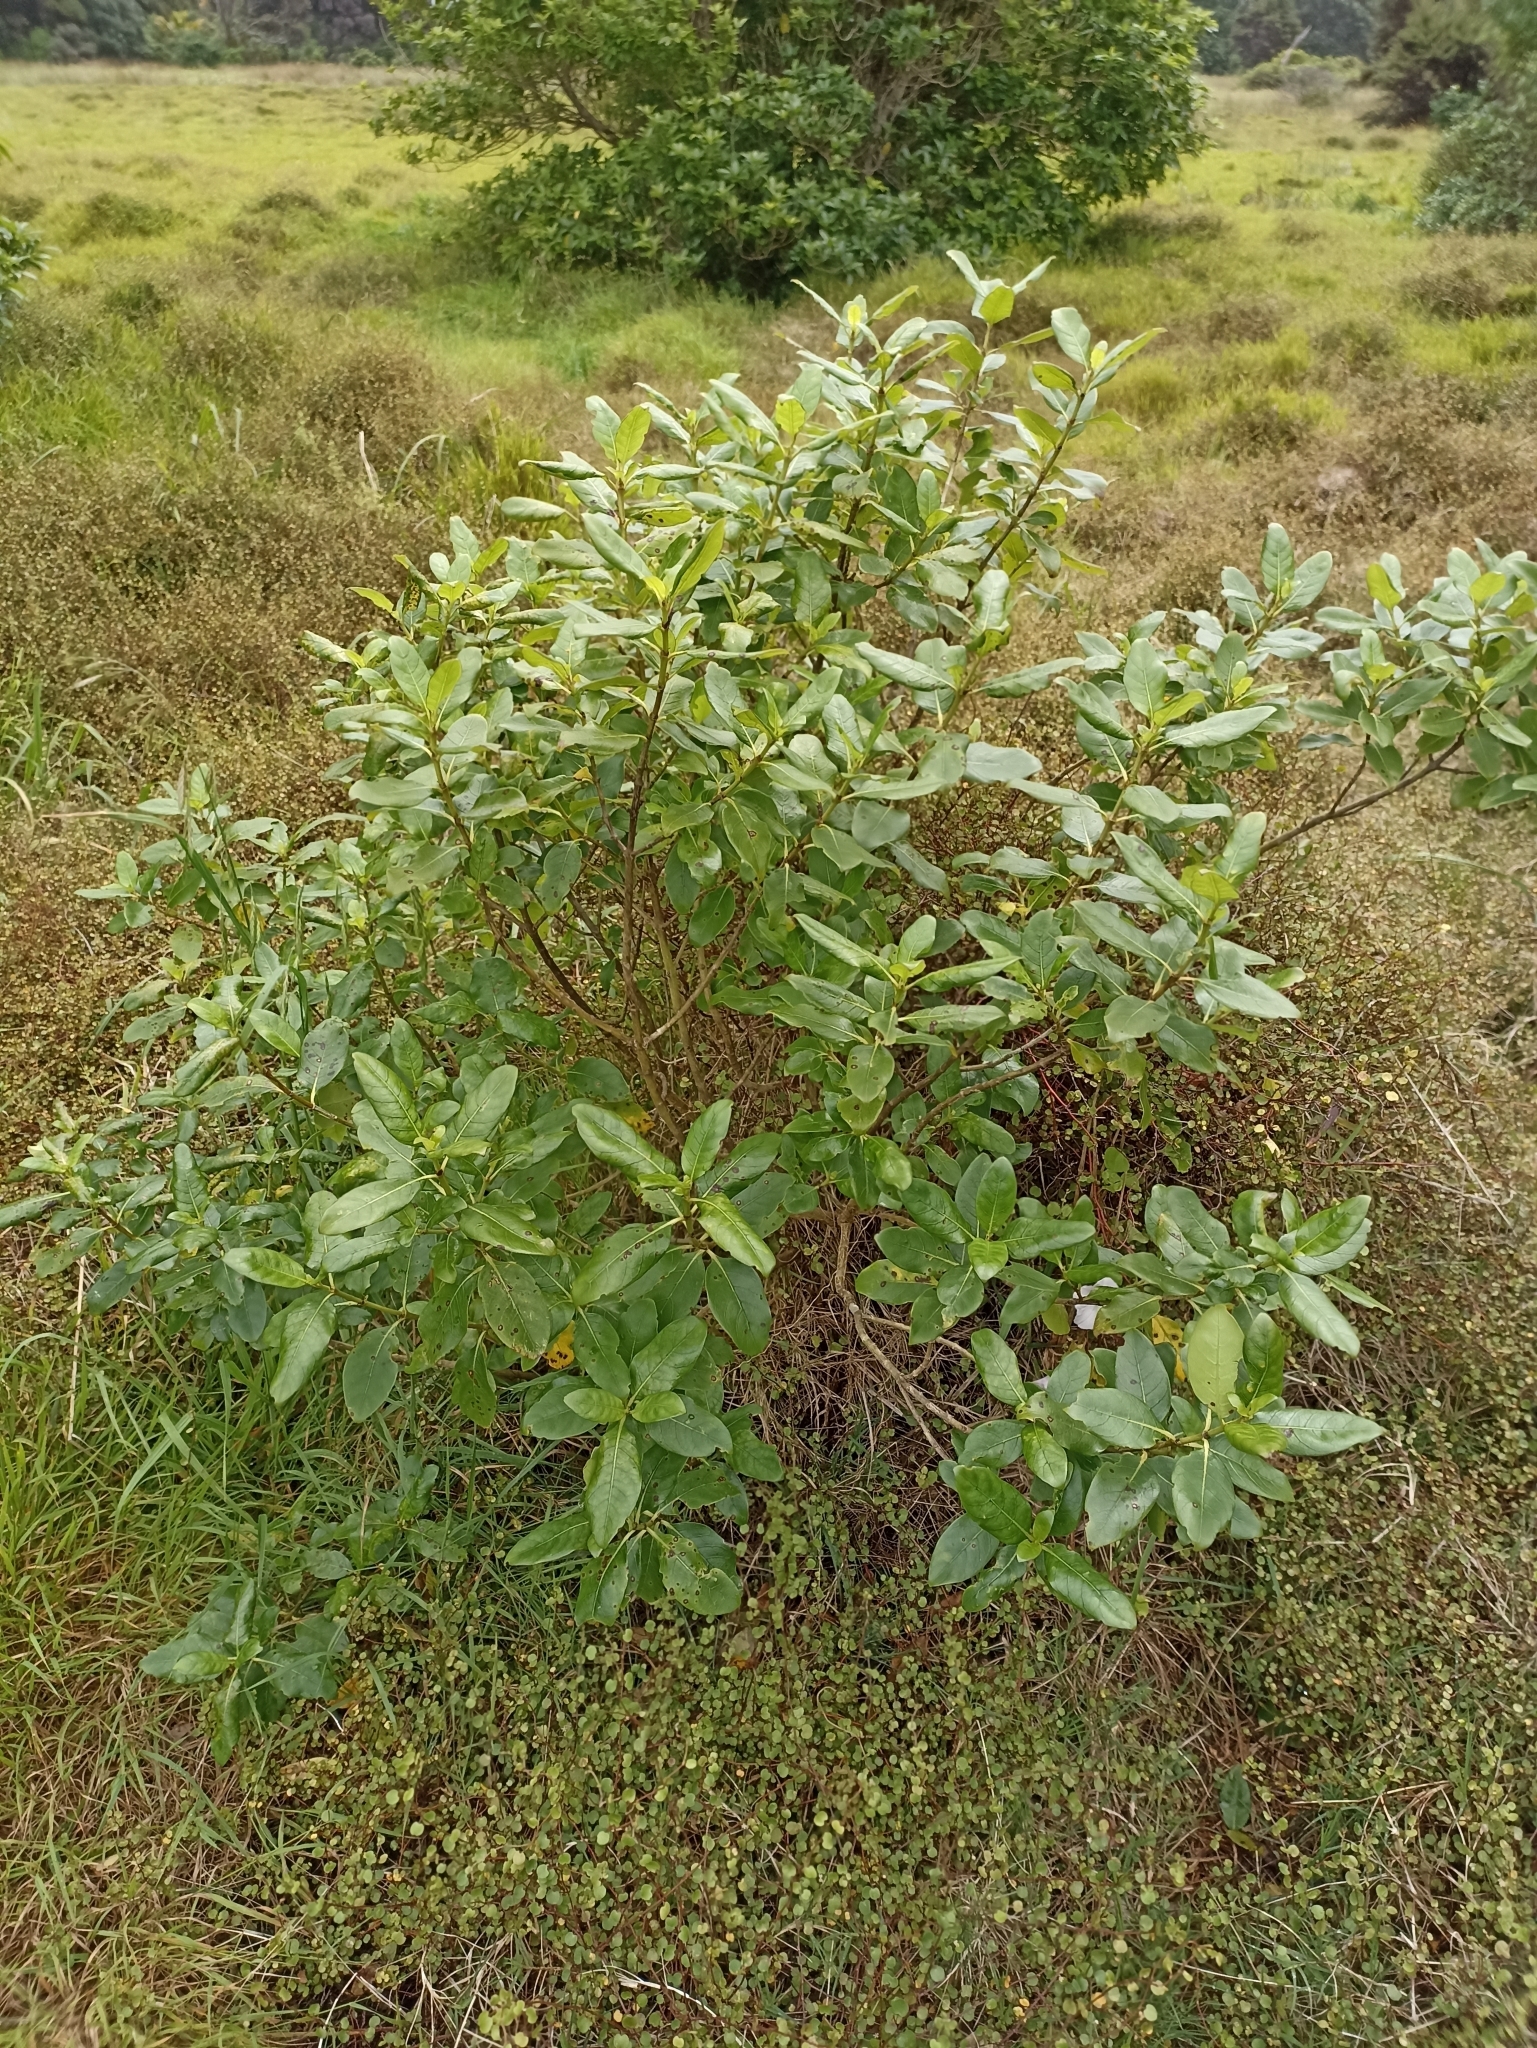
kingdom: Plantae
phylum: Tracheophyta
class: Magnoliopsida
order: Gentianales
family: Rubiaceae
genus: Coprosma
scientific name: Coprosma macrocarpa
